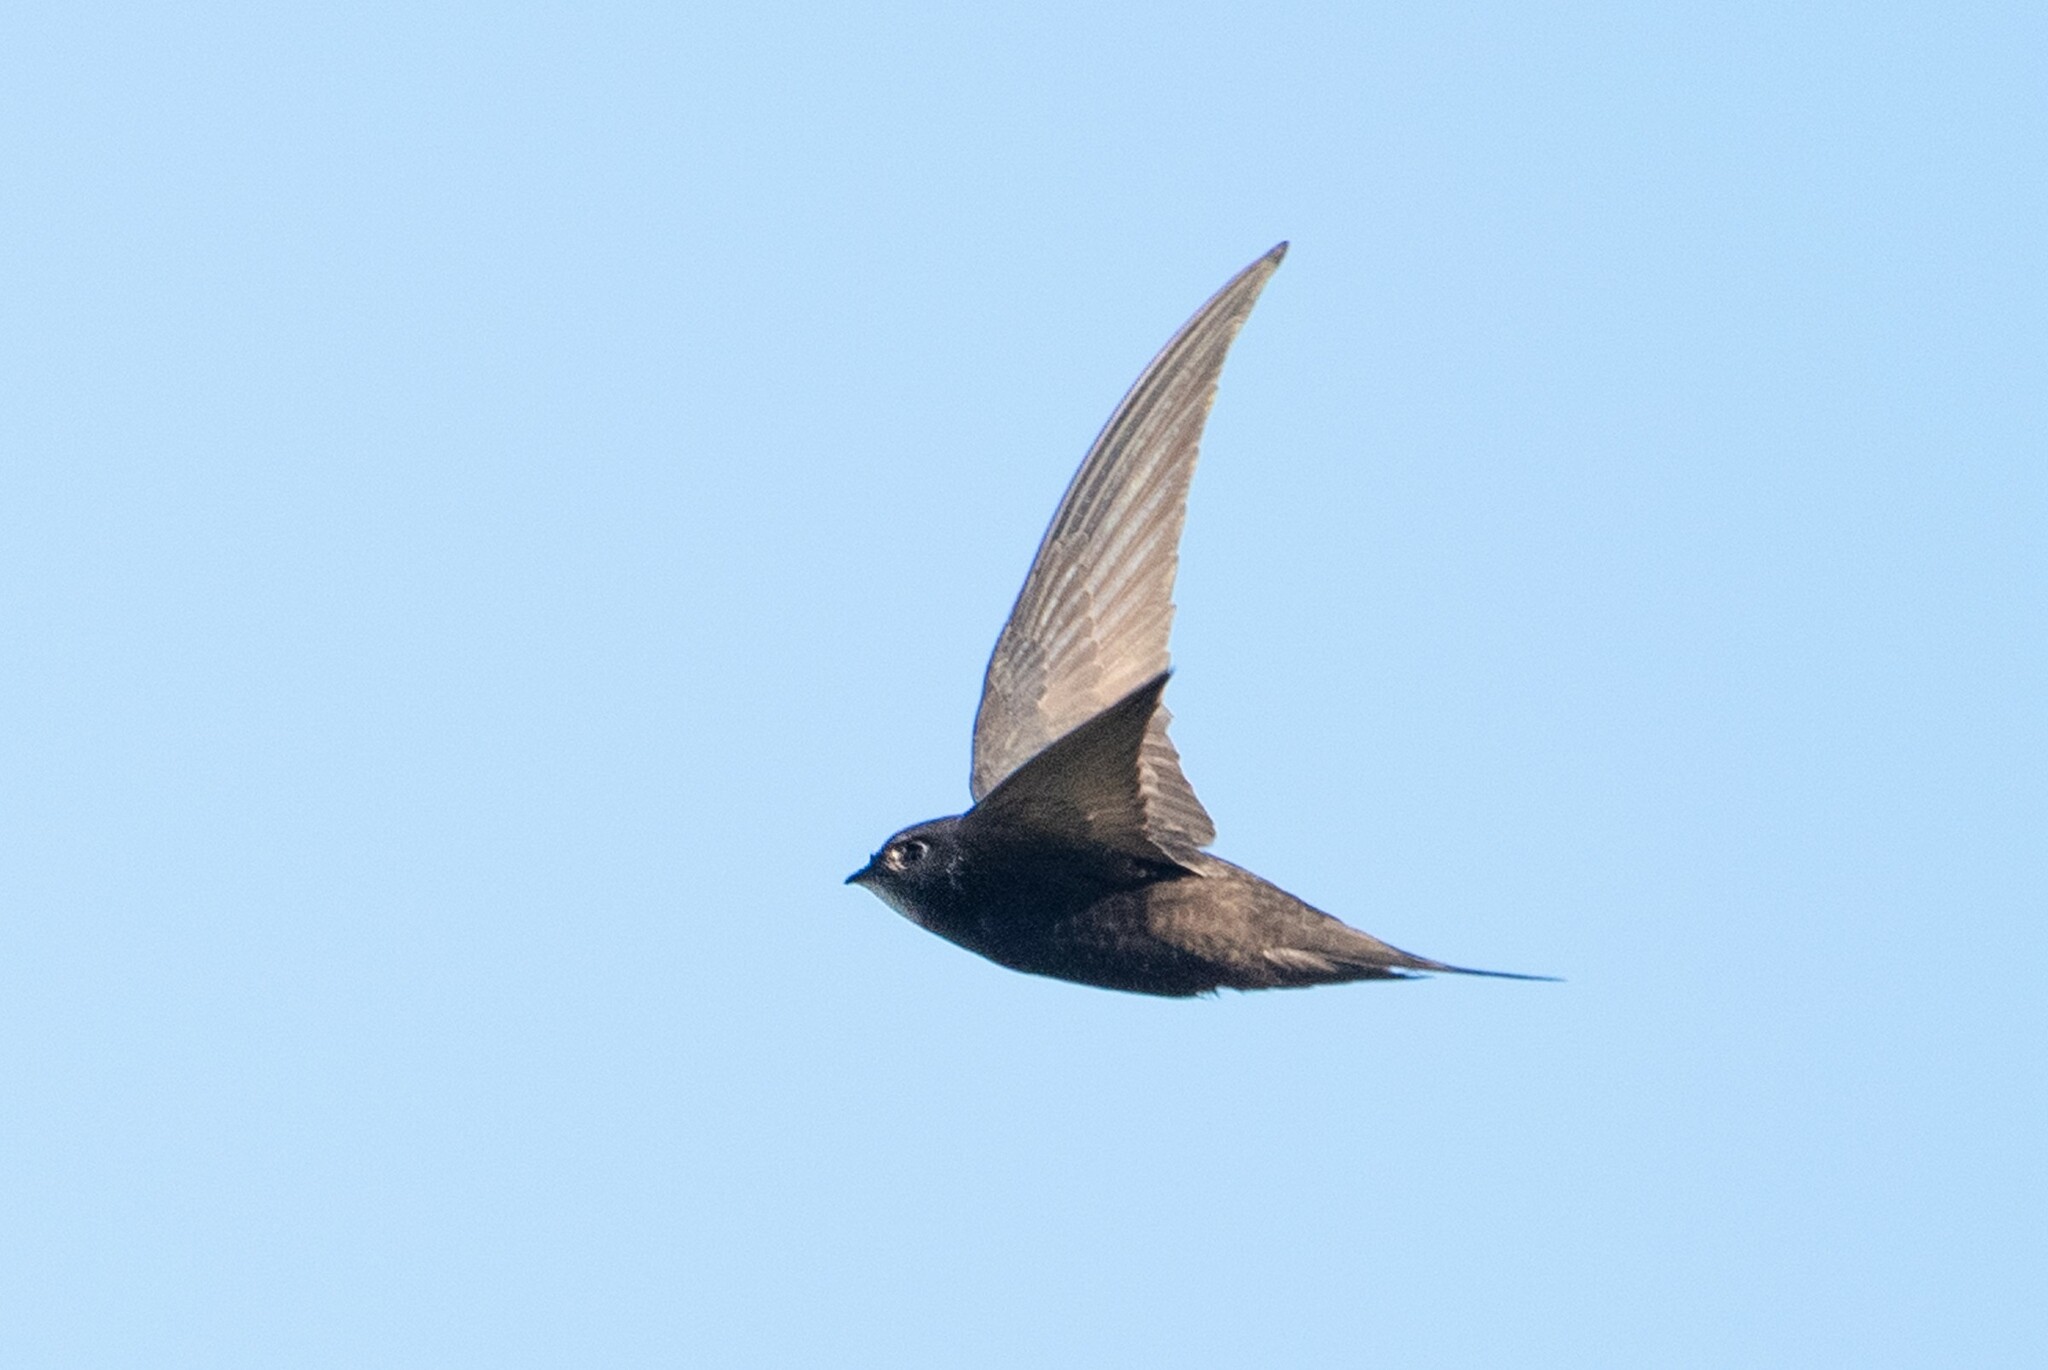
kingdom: Animalia
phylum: Chordata
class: Aves
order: Apodiformes
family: Apodidae
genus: Apus
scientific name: Apus apus
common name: Common swift
